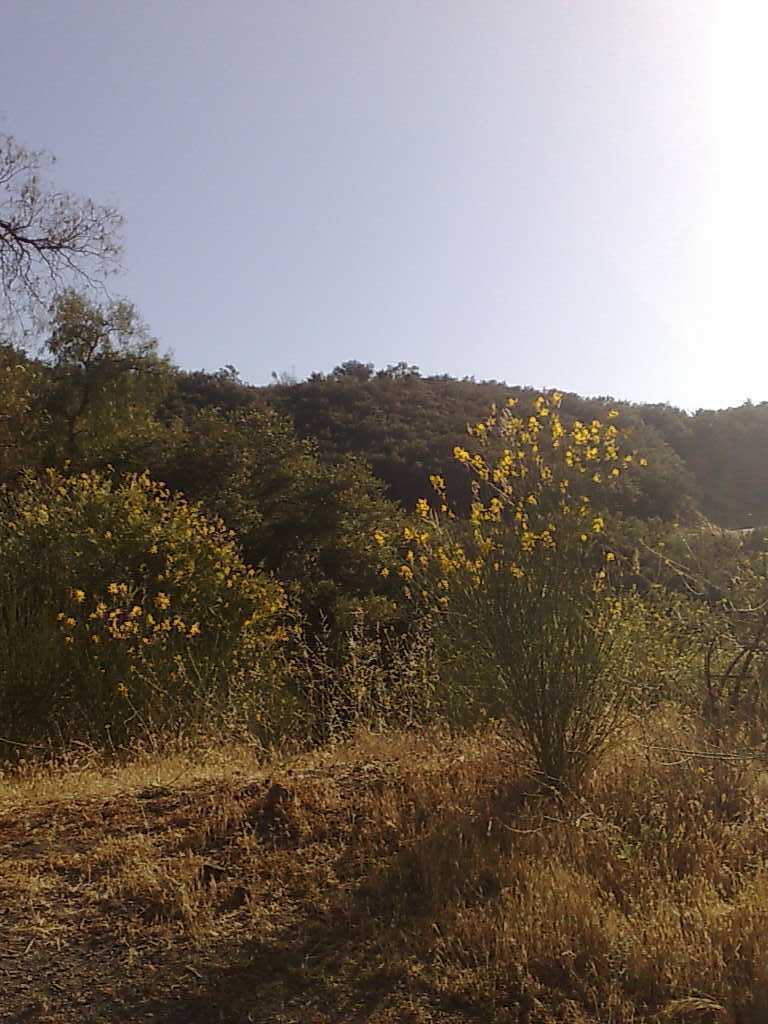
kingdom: Plantae
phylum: Tracheophyta
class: Magnoliopsida
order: Fabales
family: Fabaceae
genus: Spartium
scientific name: Spartium junceum
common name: Spanish broom
